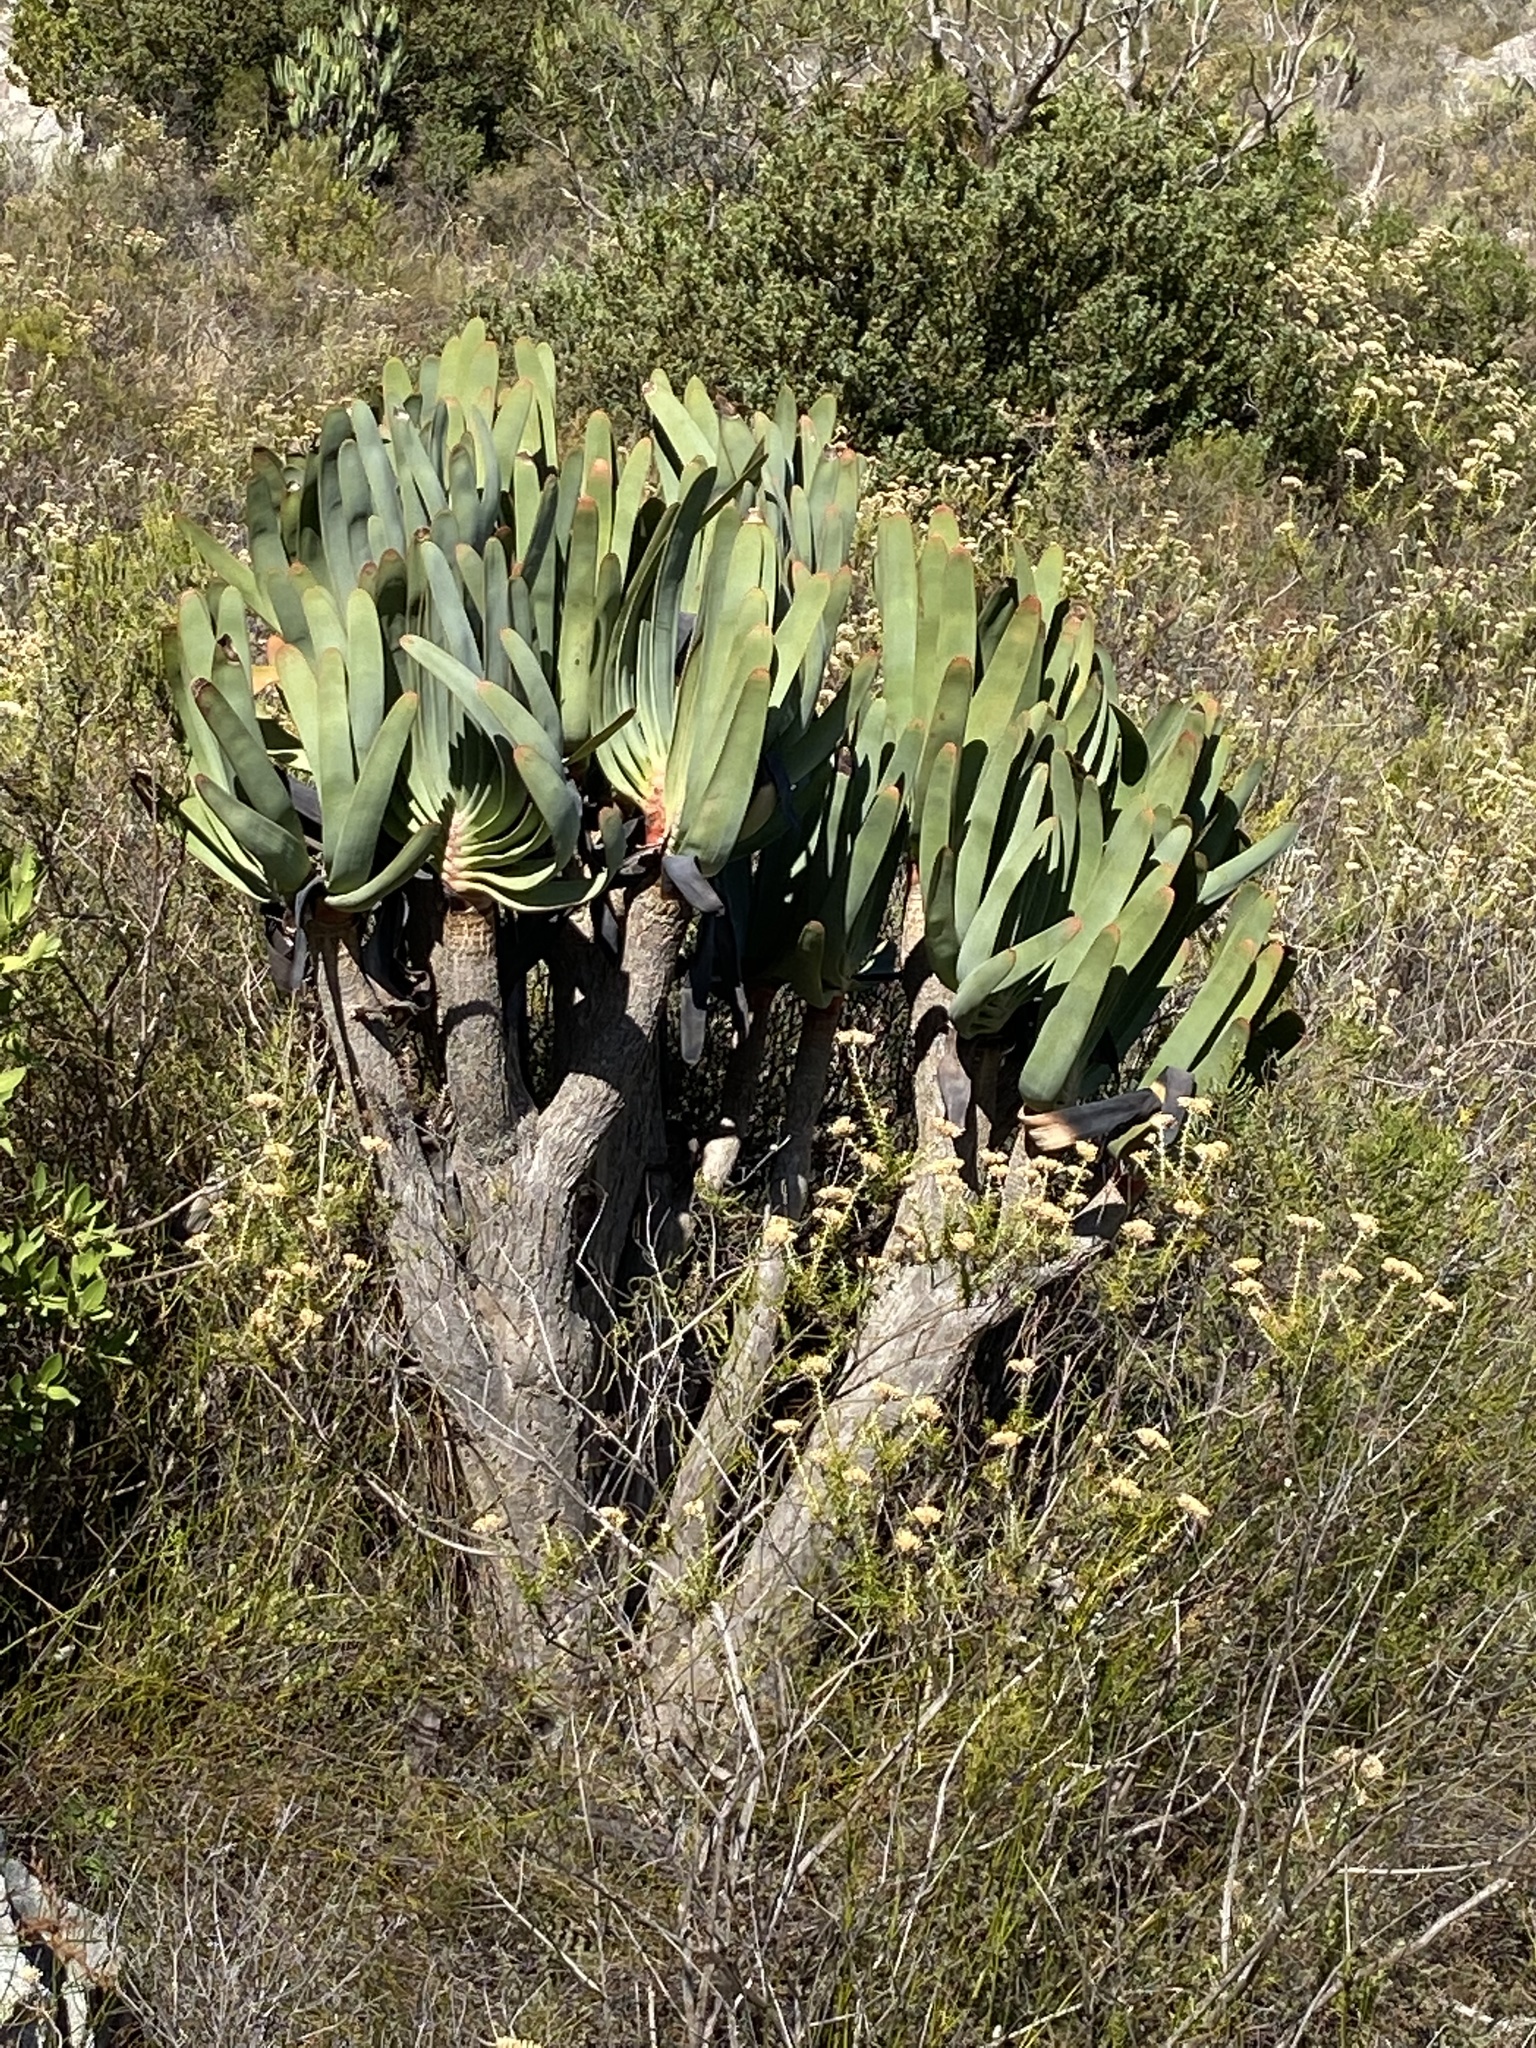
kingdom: Plantae
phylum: Tracheophyta
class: Liliopsida
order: Asparagales
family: Asphodelaceae
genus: Kumara
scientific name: Kumara plicatilis
